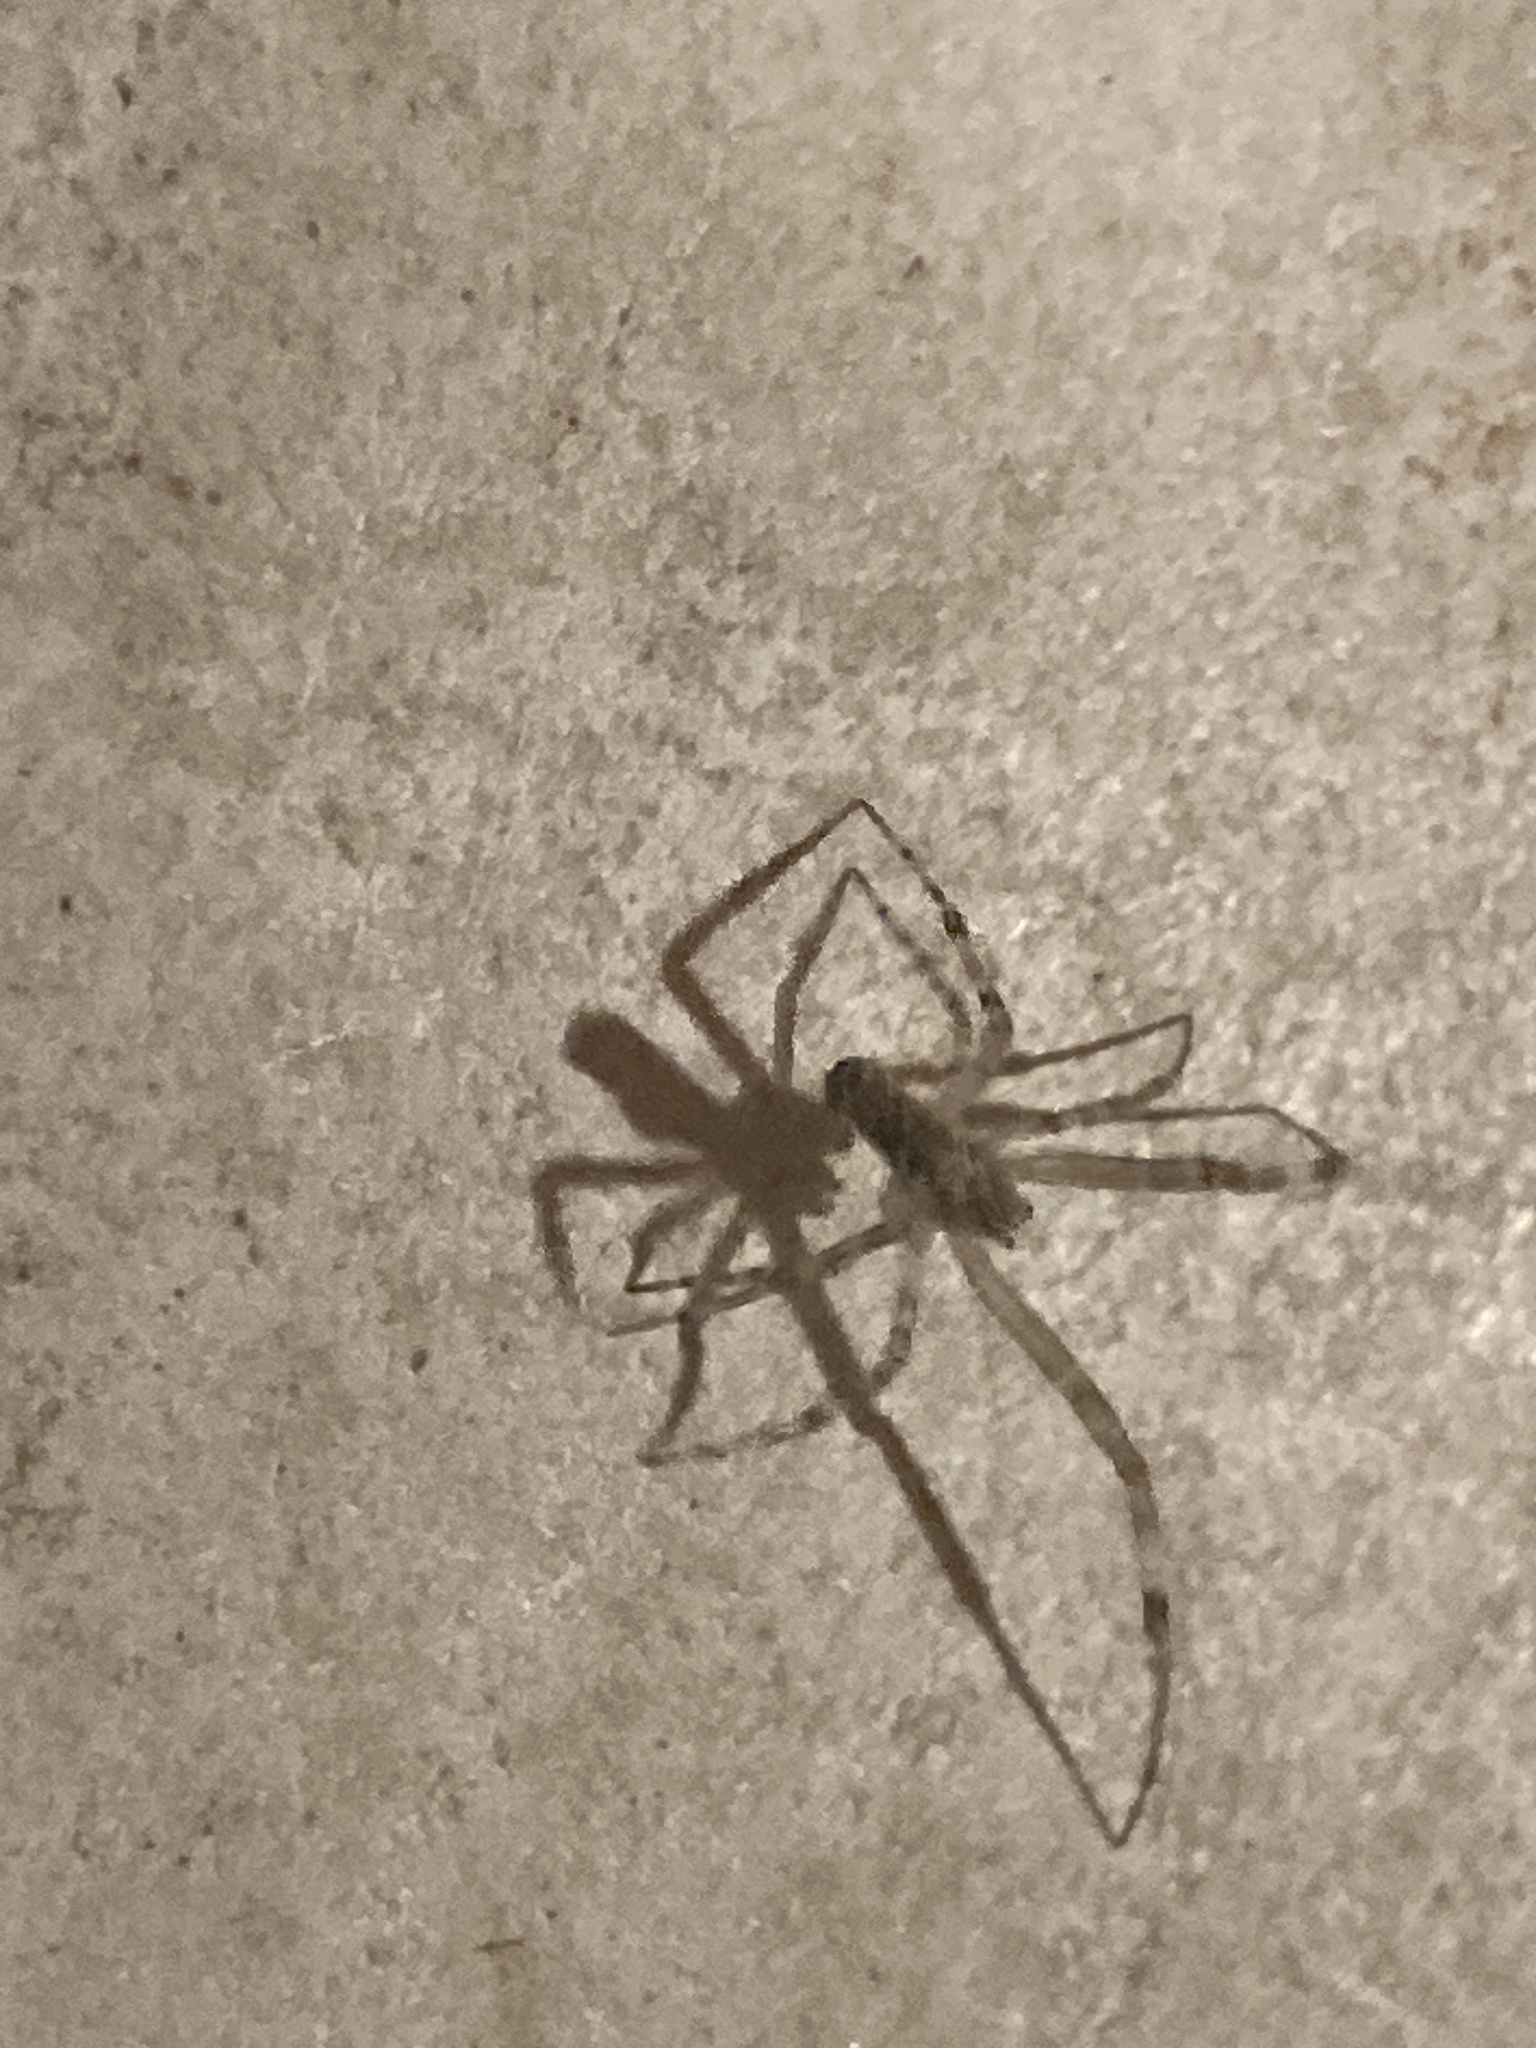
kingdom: Animalia
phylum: Arthropoda
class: Arachnida
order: Araneae
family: Uloboridae
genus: Zosis
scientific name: Zosis geniculata
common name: Hackled orb weavers
